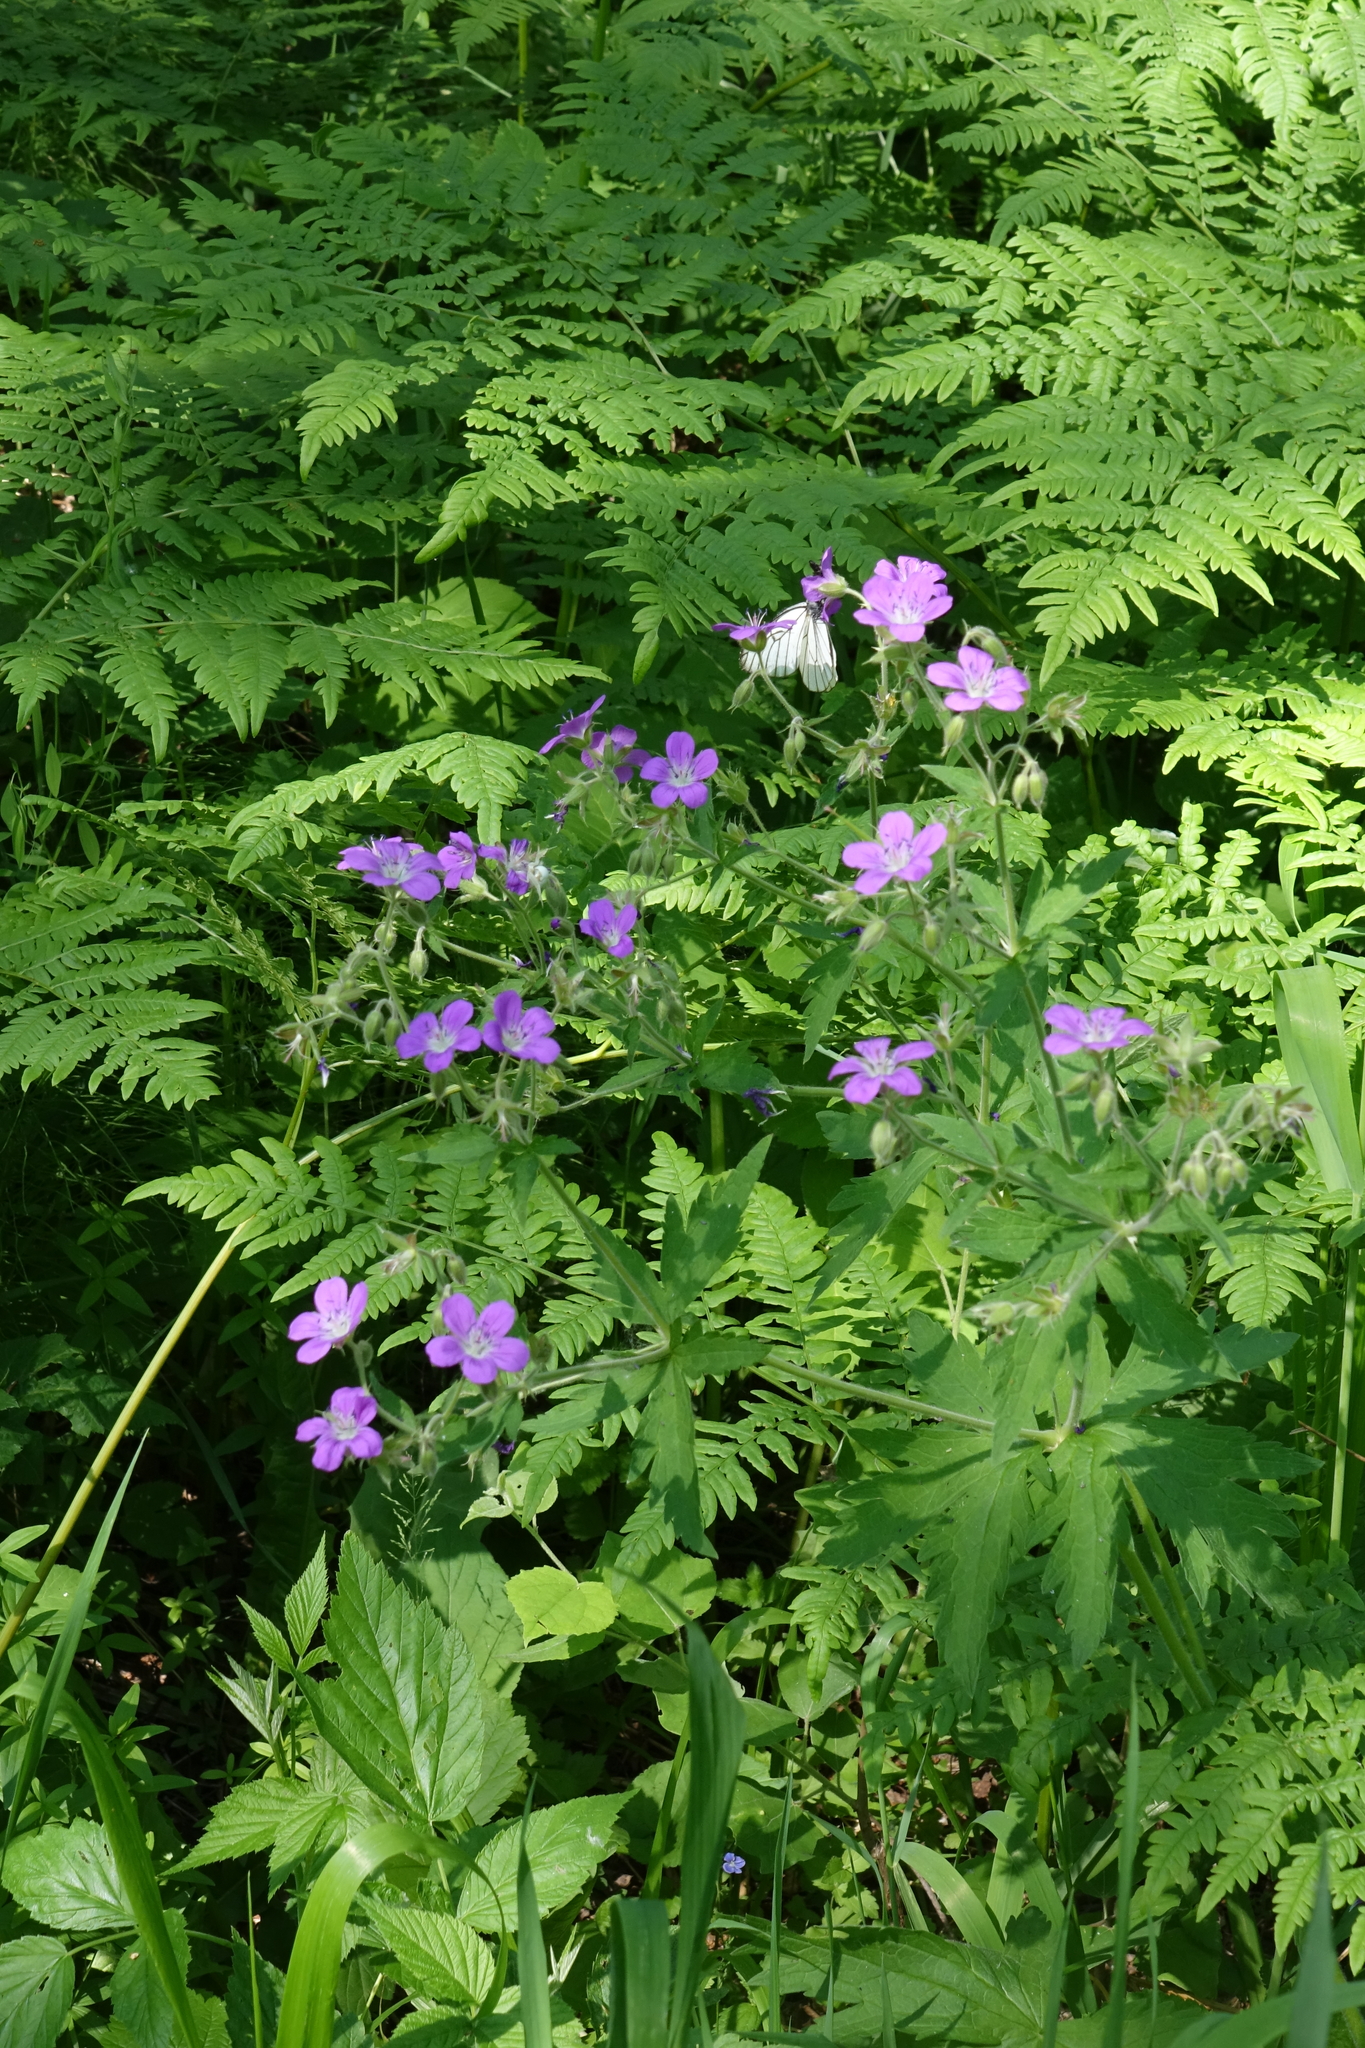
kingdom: Plantae
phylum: Tracheophyta
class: Magnoliopsida
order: Geraniales
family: Geraniaceae
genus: Geranium
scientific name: Geranium sylvaticum
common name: Wood crane's-bill
